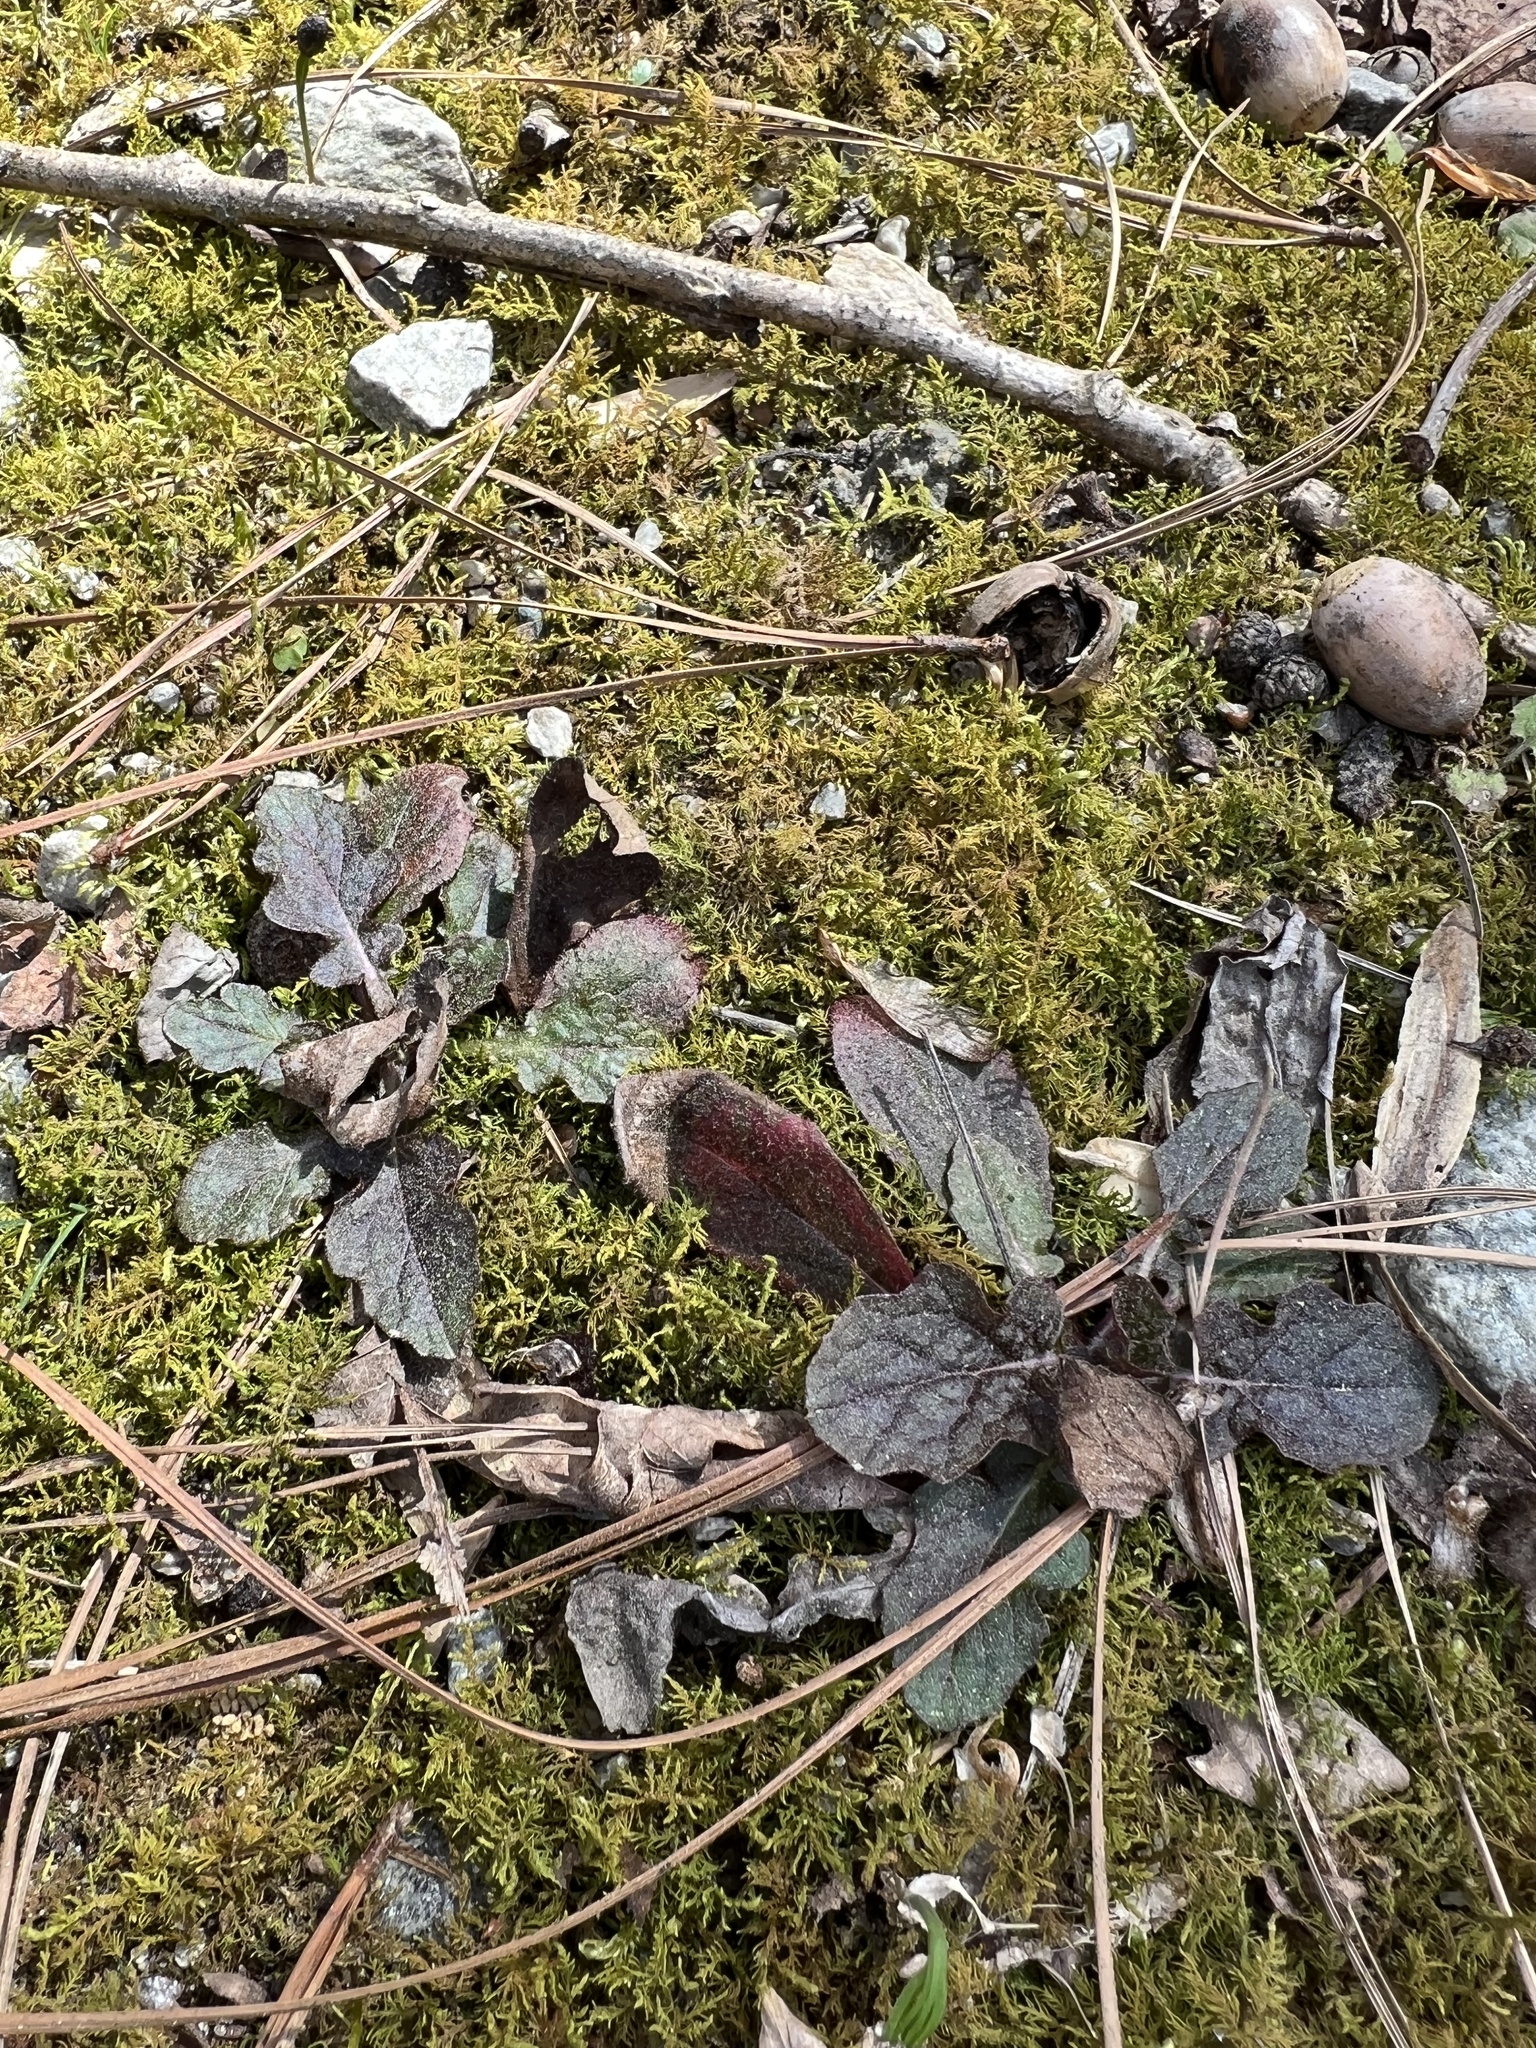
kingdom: Plantae
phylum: Tracheophyta
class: Magnoliopsida
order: Lamiales
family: Lamiaceae
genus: Salvia
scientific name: Salvia lyrata
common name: Cancerweed
